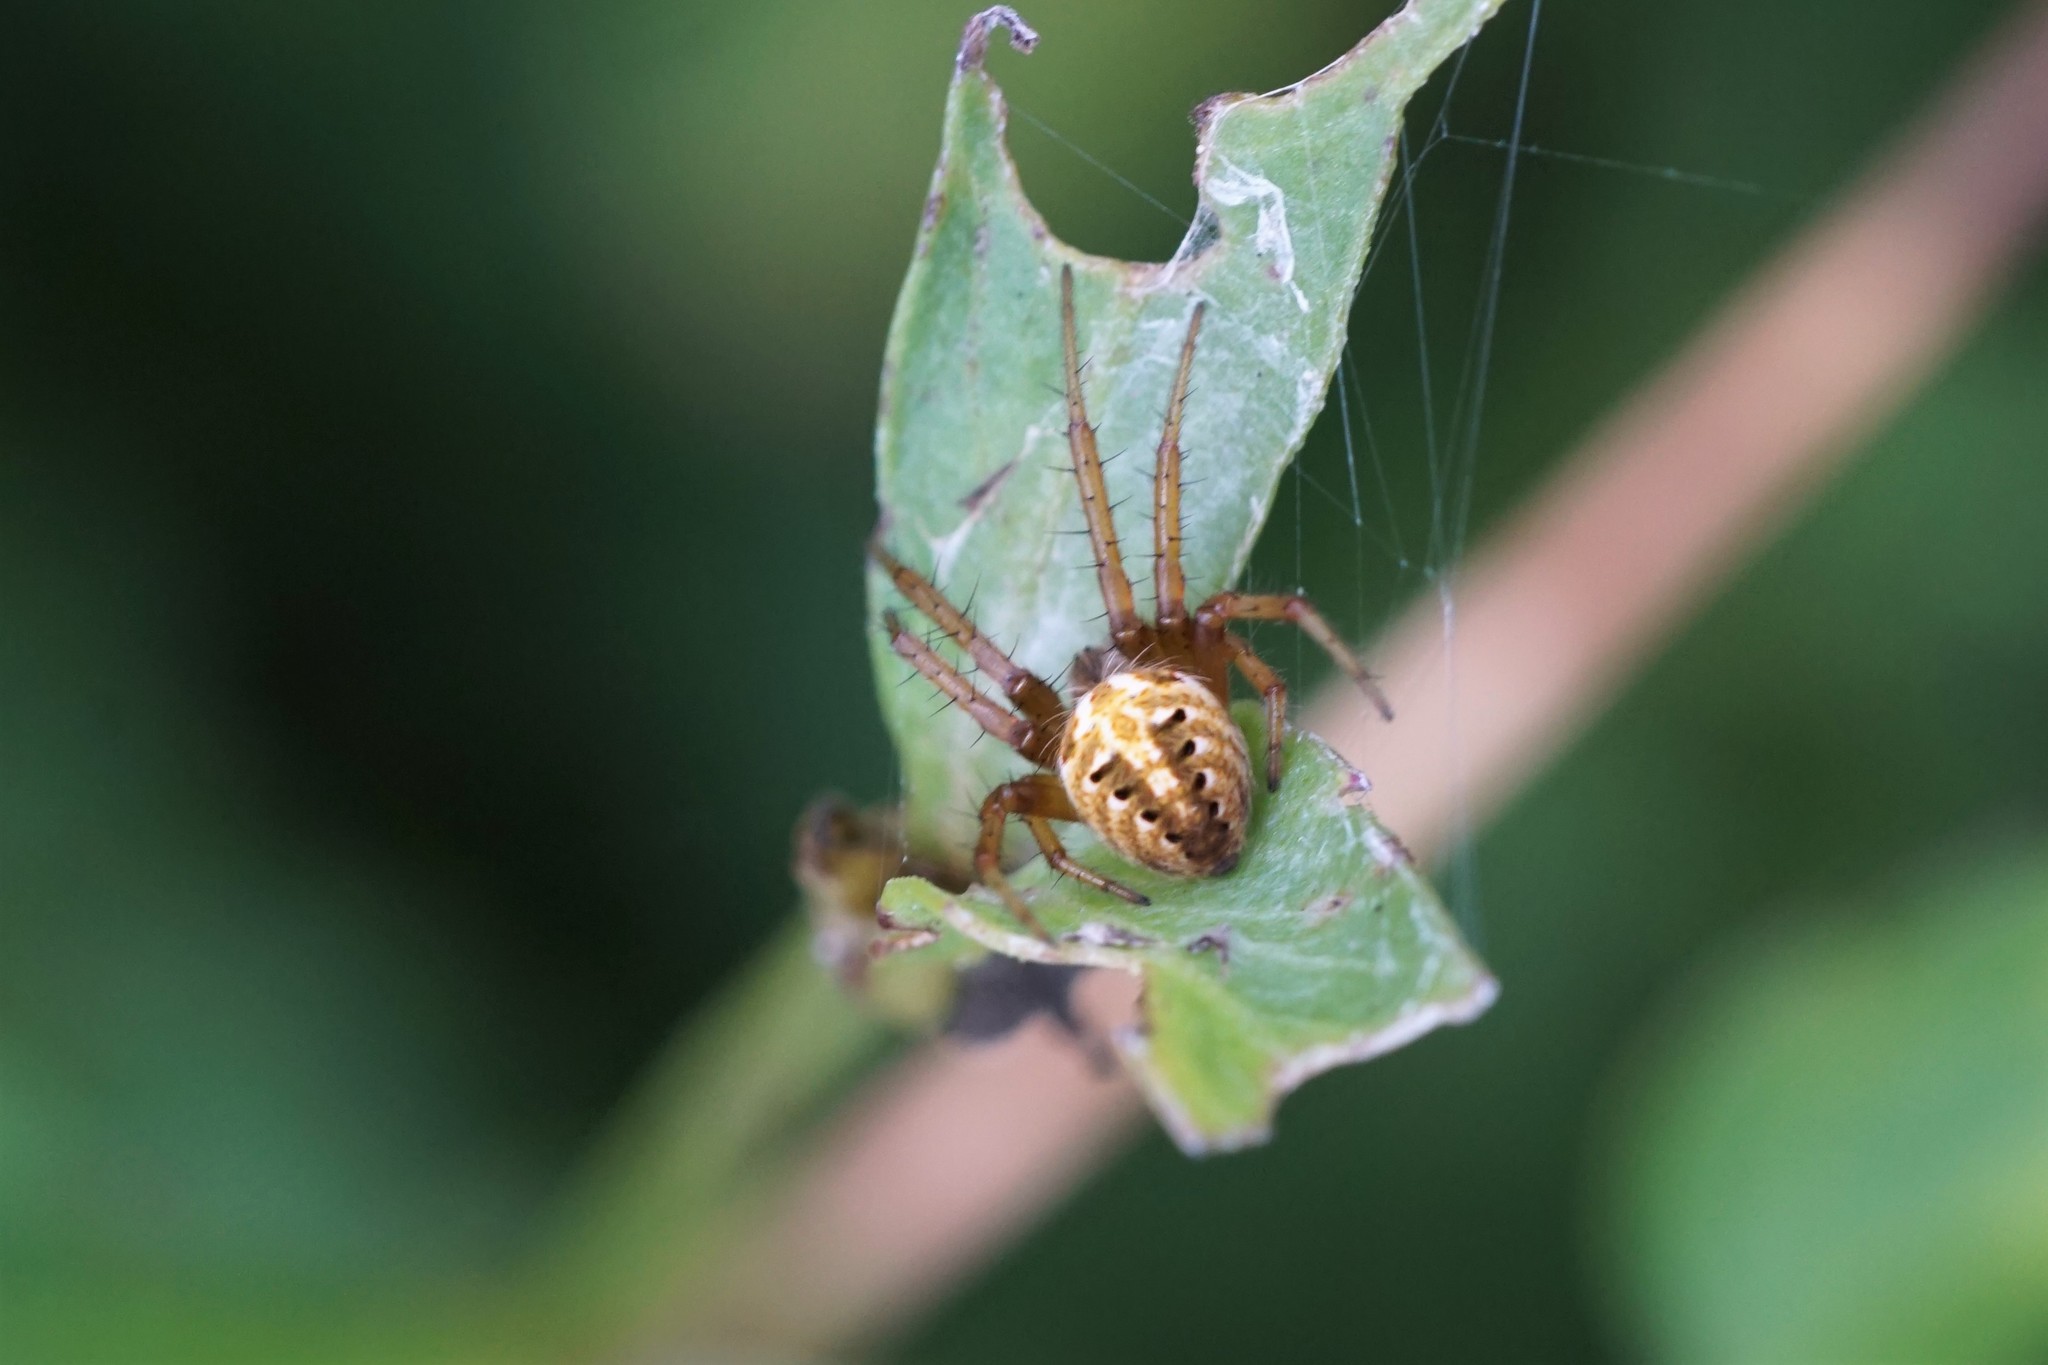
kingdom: Animalia
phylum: Arthropoda
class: Arachnida
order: Araneae
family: Araneidae
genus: Neoscona
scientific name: Neoscona arabesca
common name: Orb weavers
